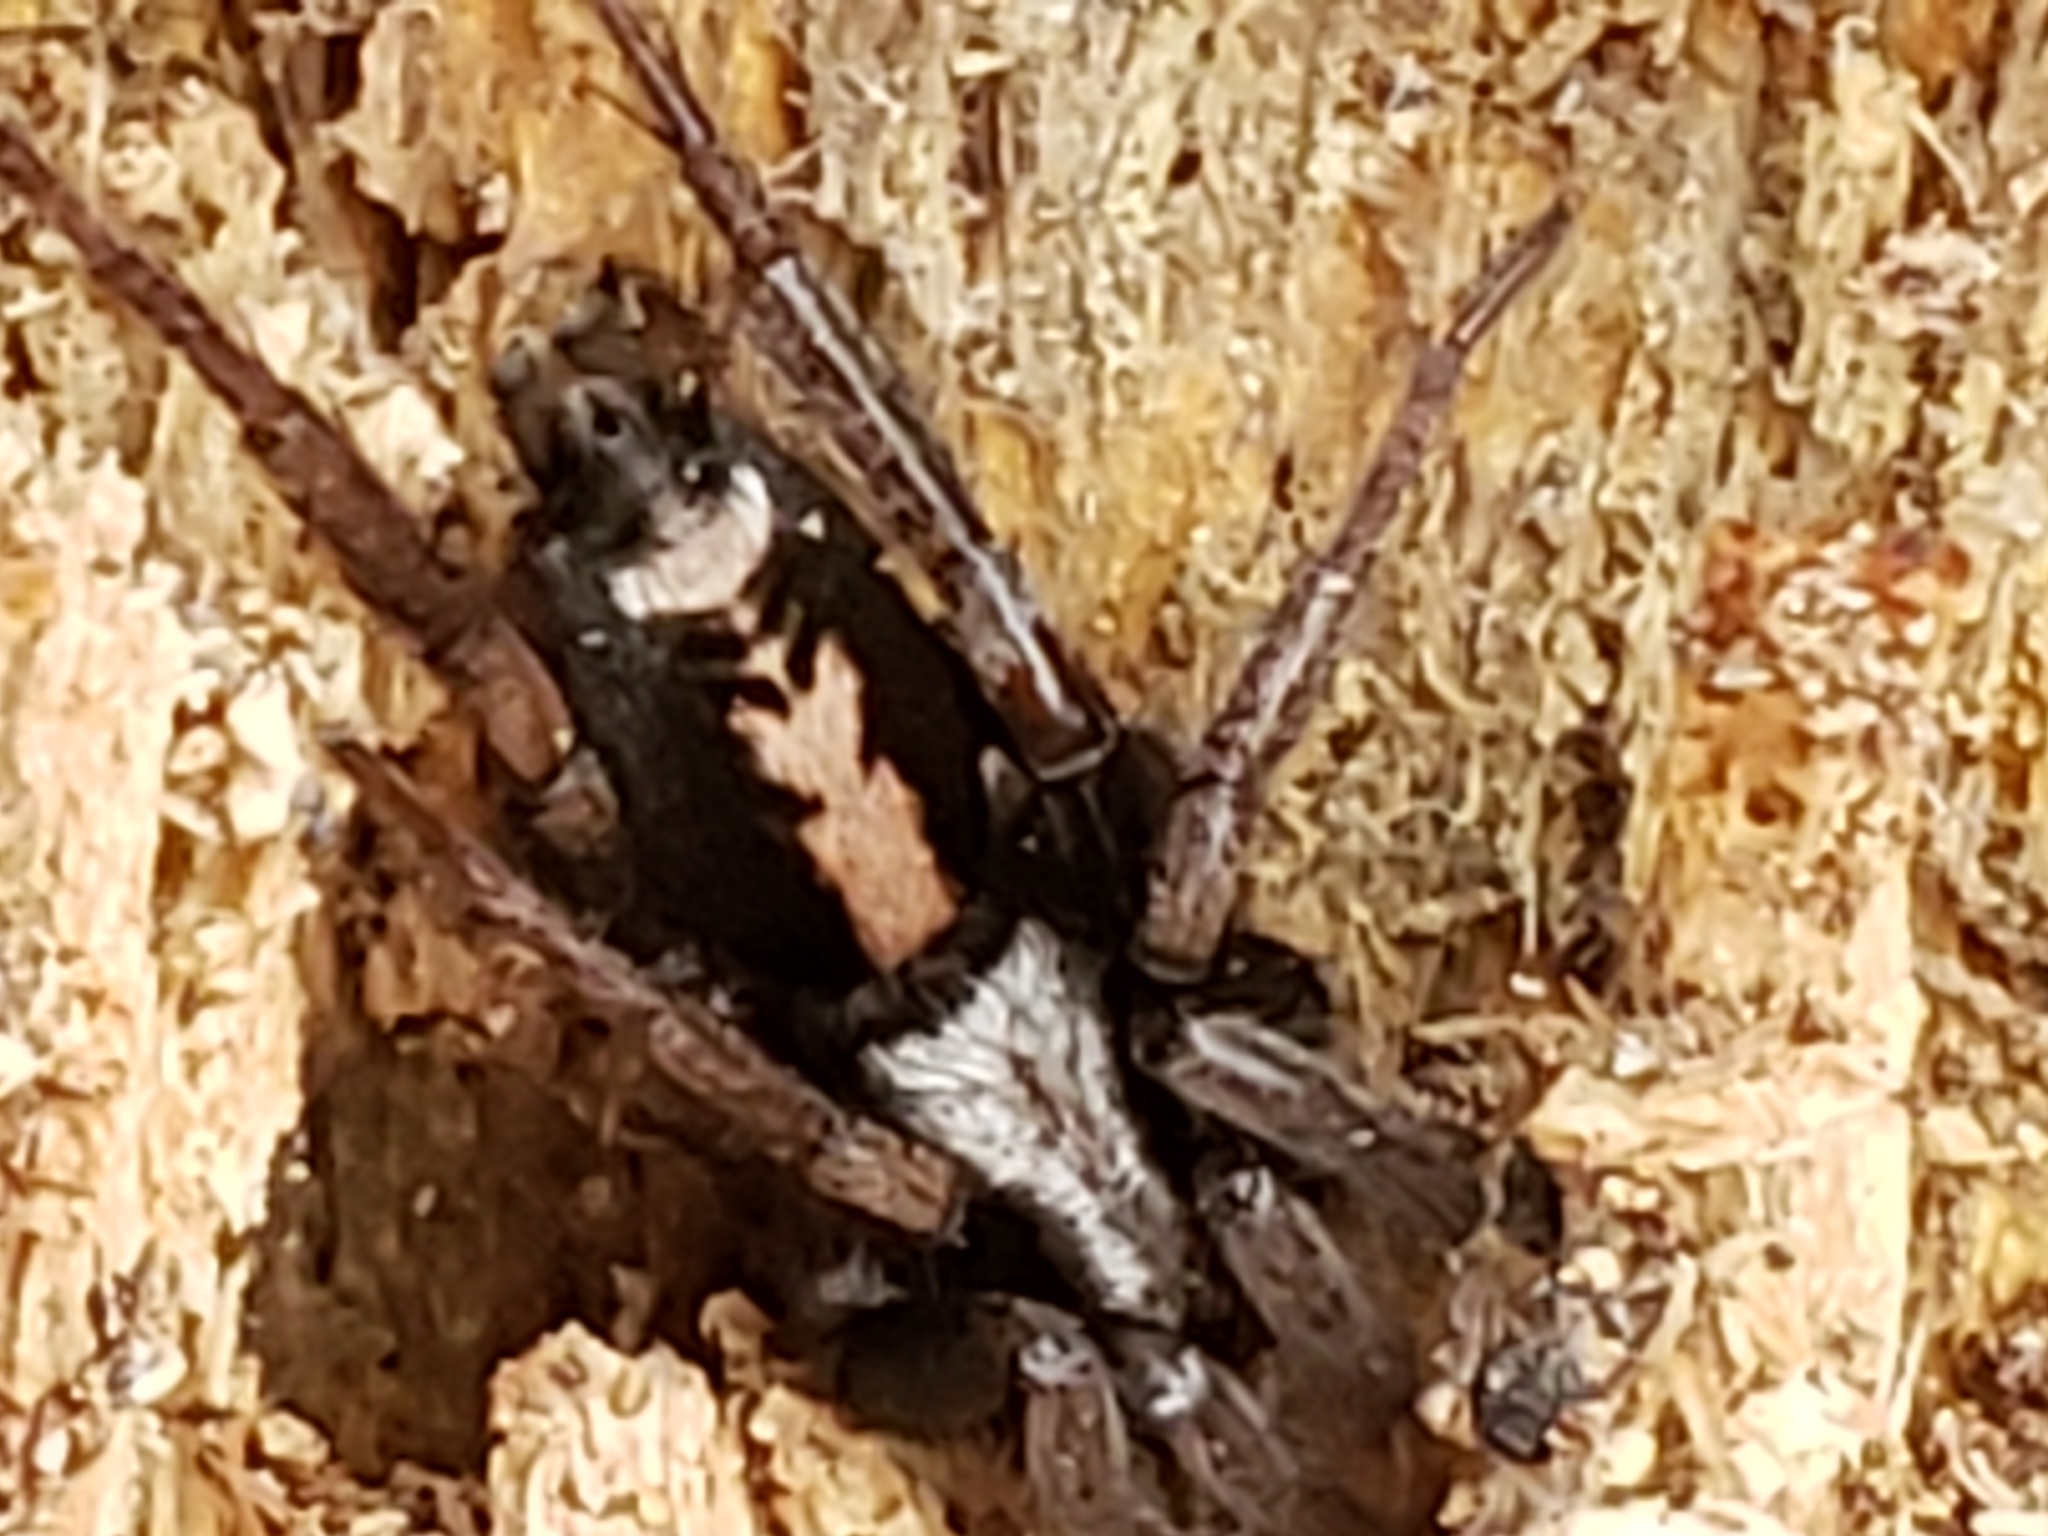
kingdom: Animalia
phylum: Arthropoda
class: Arachnida
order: Araneae
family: Gnaphosidae
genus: Herpyllus
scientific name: Herpyllus ecclesiasticus
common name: Eastern parson spider
